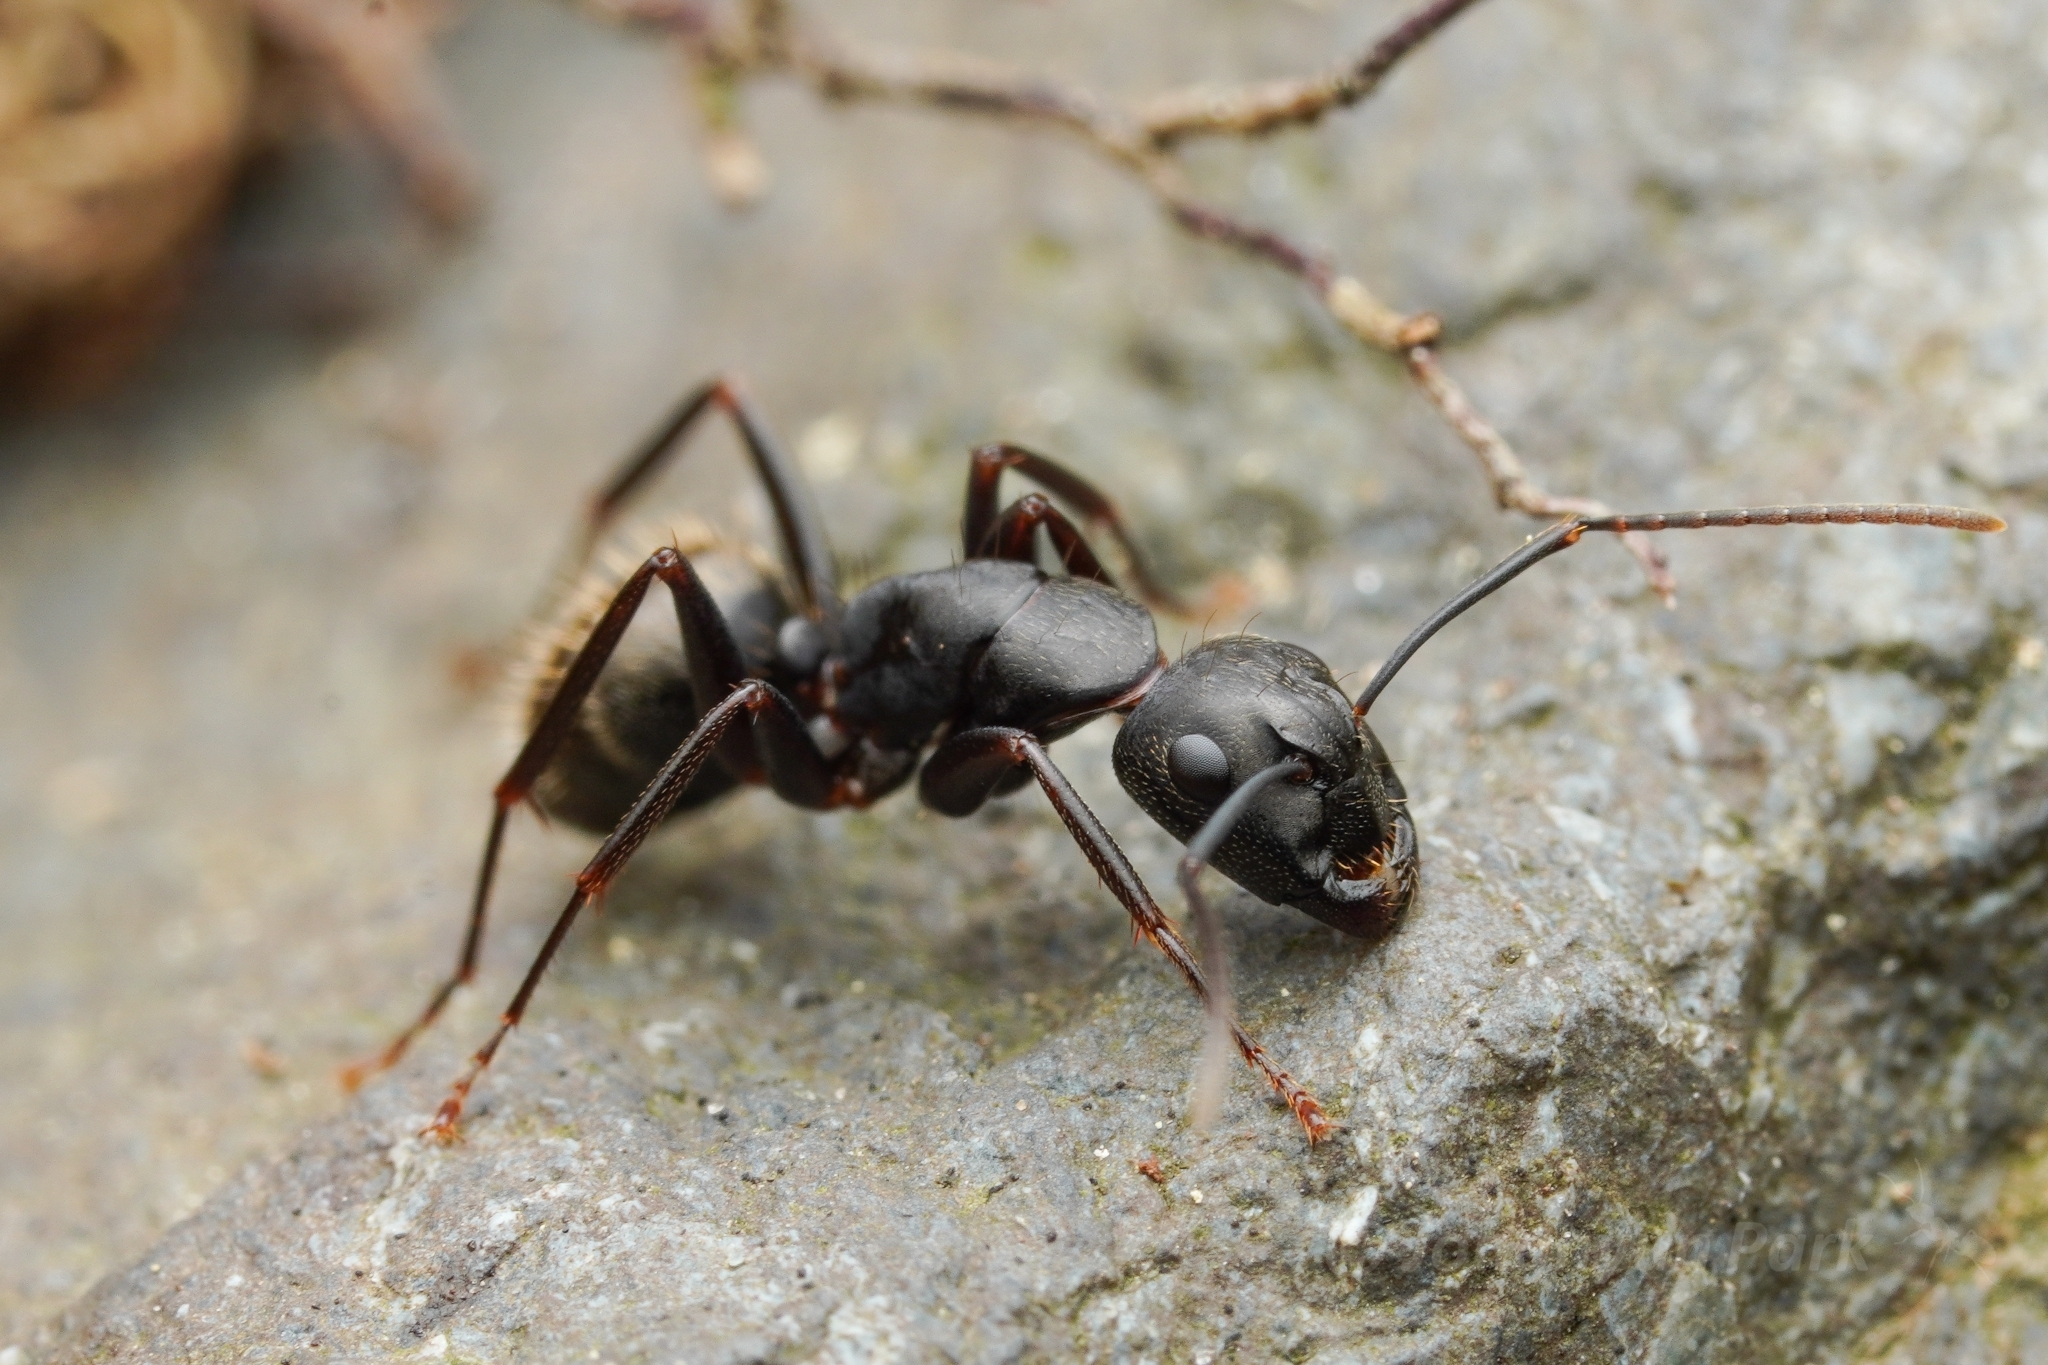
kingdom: Animalia
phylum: Arthropoda
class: Insecta
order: Hymenoptera
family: Formicidae
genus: Camponotus
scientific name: Camponotus pennsylvanicus
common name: Black carpenter ant
